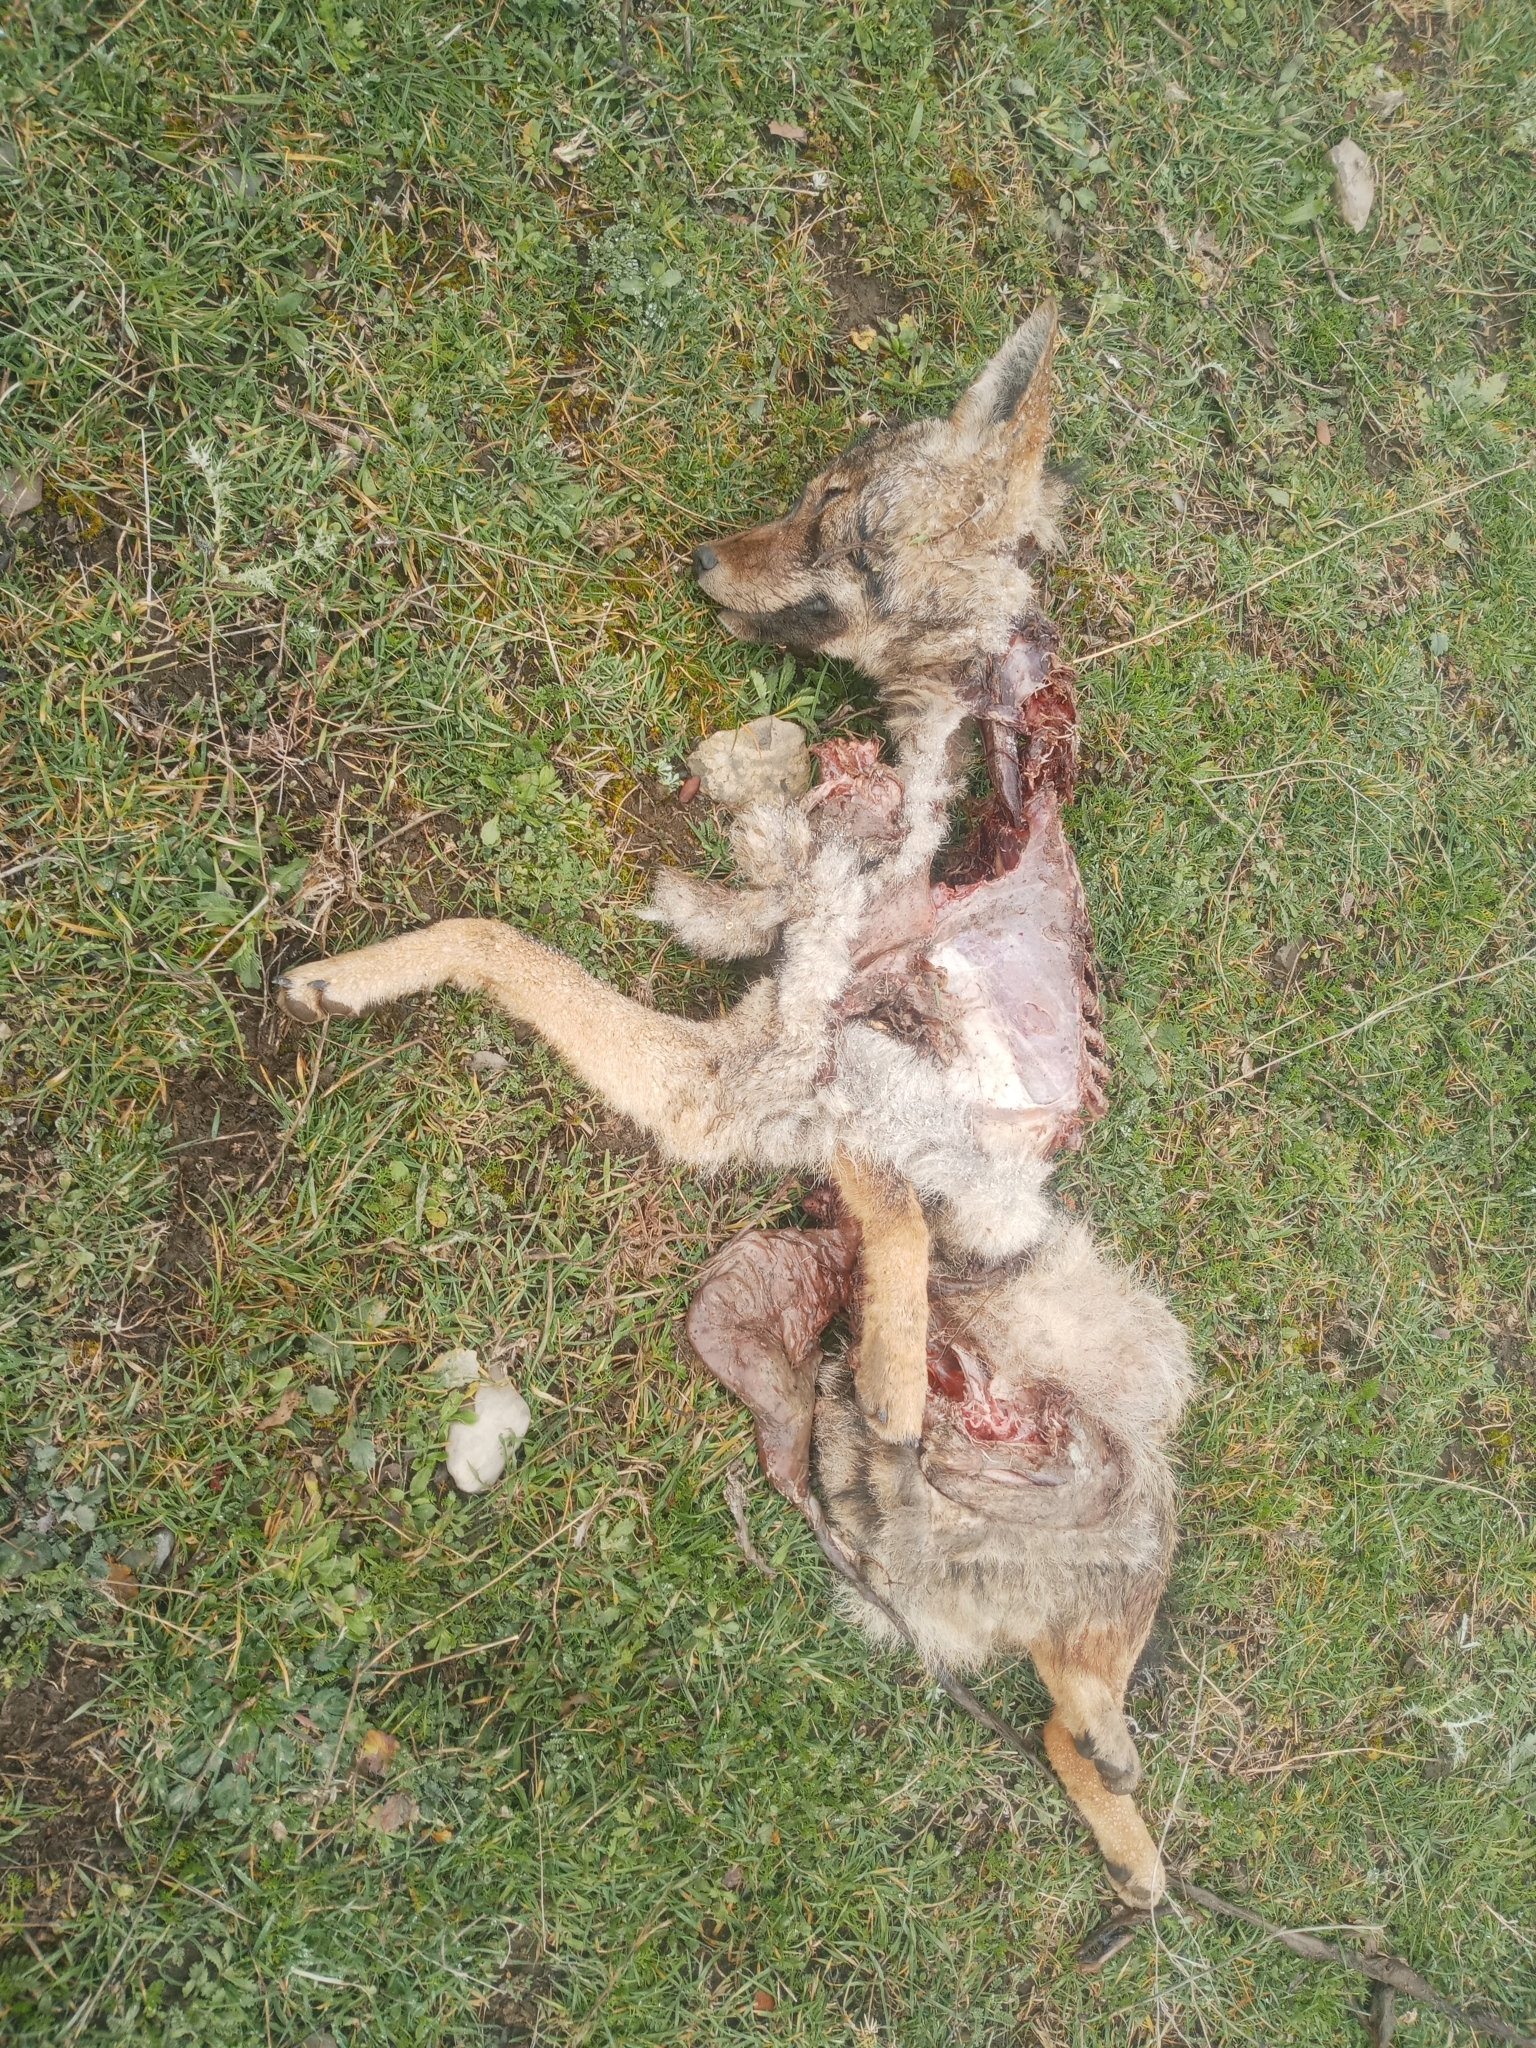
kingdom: Animalia
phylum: Chordata
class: Mammalia
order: Carnivora
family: Canidae
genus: Canis
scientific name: Canis lupaster
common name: African golden wolf
